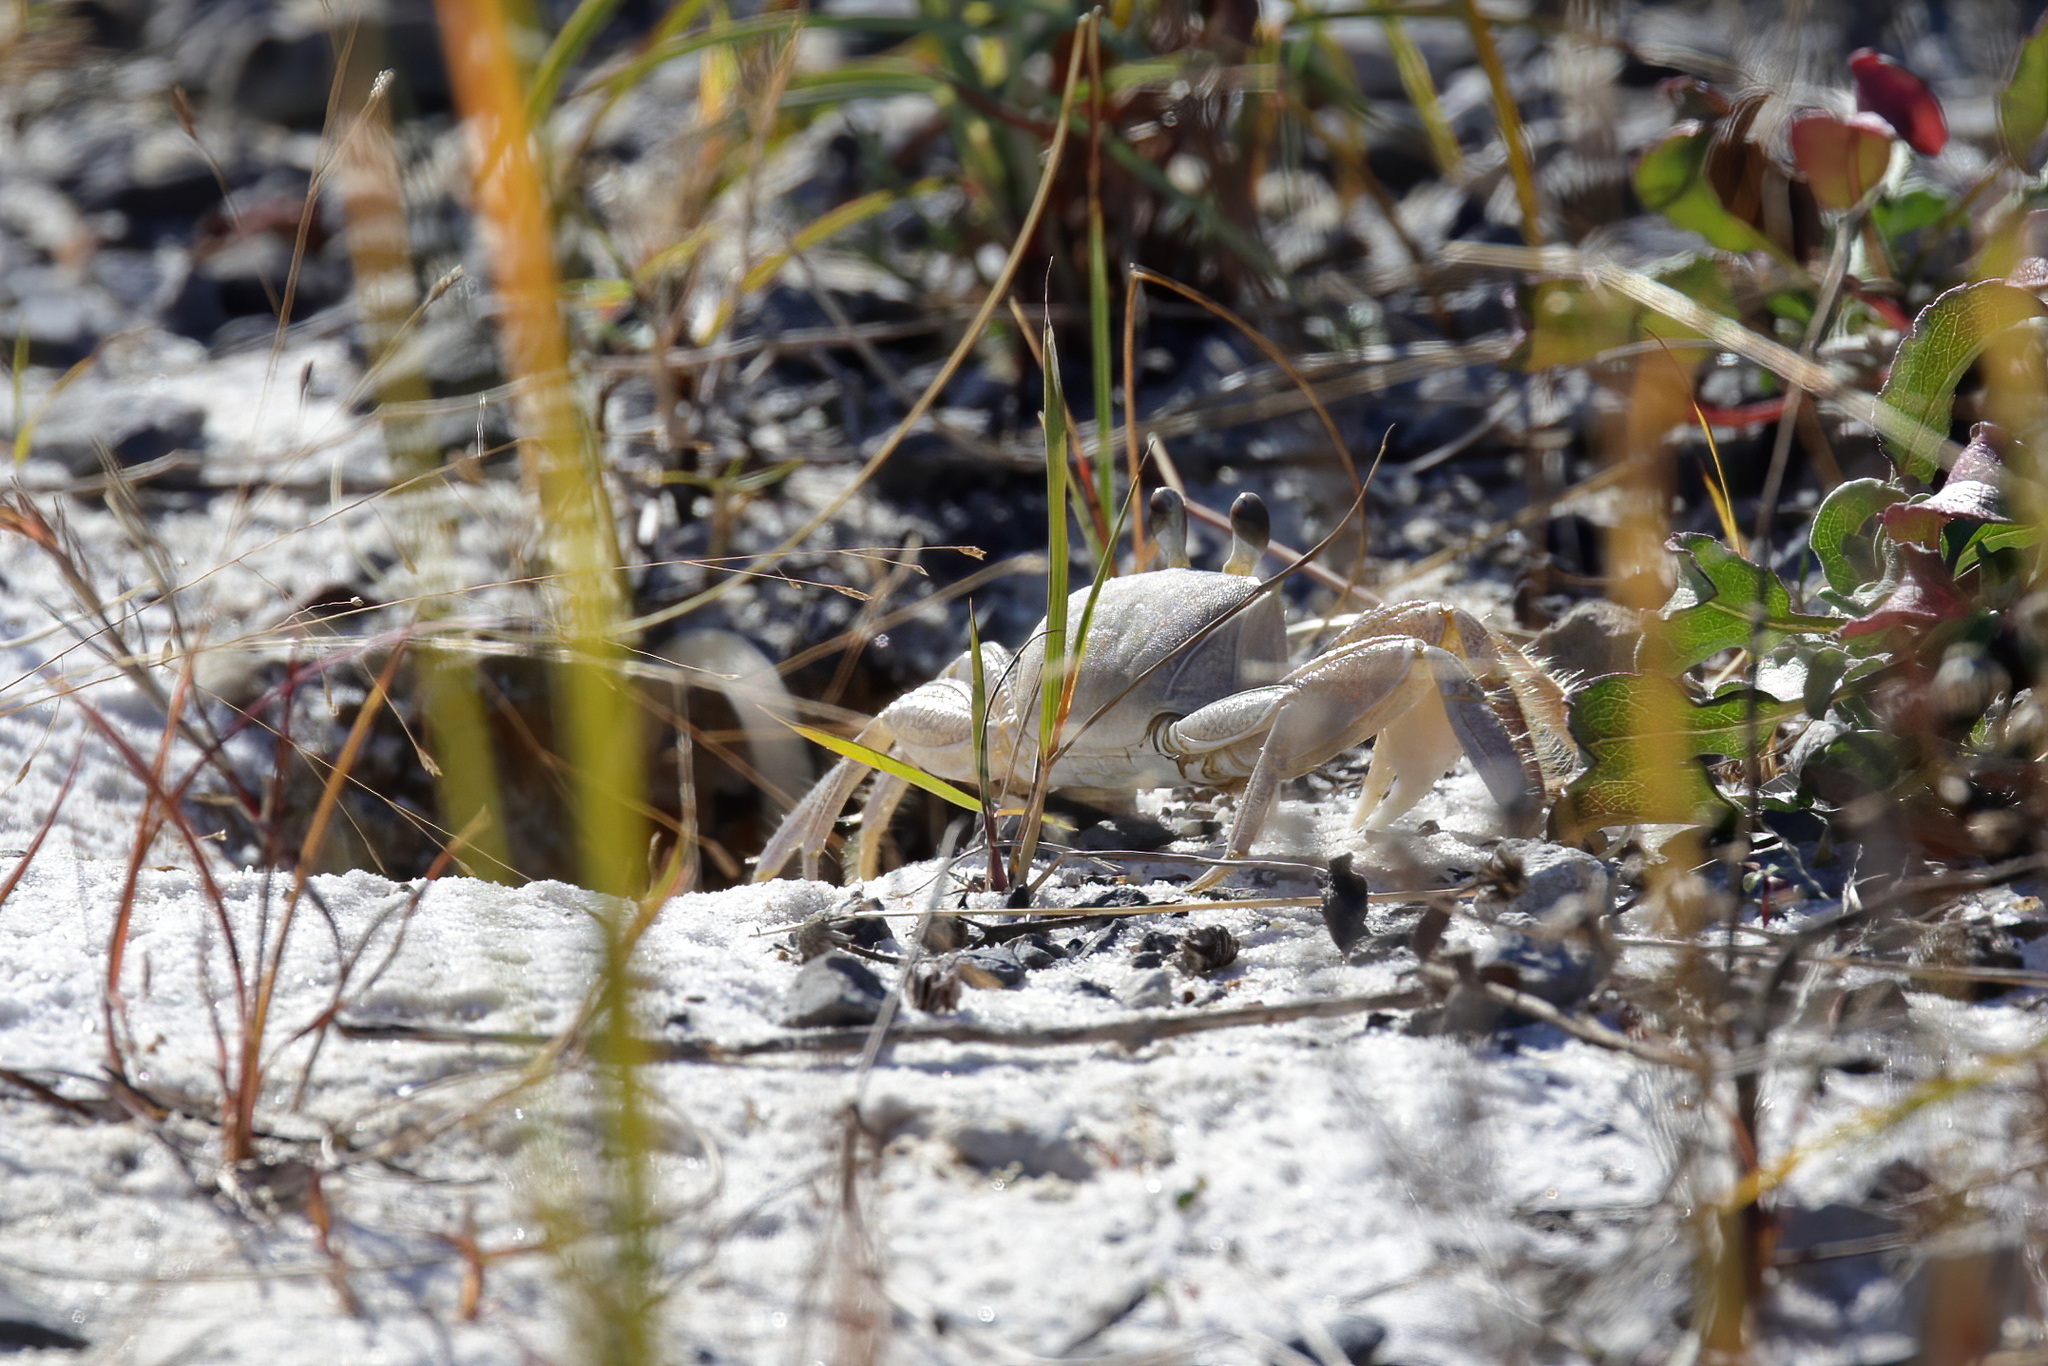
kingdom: Animalia
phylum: Arthropoda
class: Malacostraca
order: Decapoda
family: Ocypodidae
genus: Ocypode
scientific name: Ocypode quadrata
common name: Ghost crab
